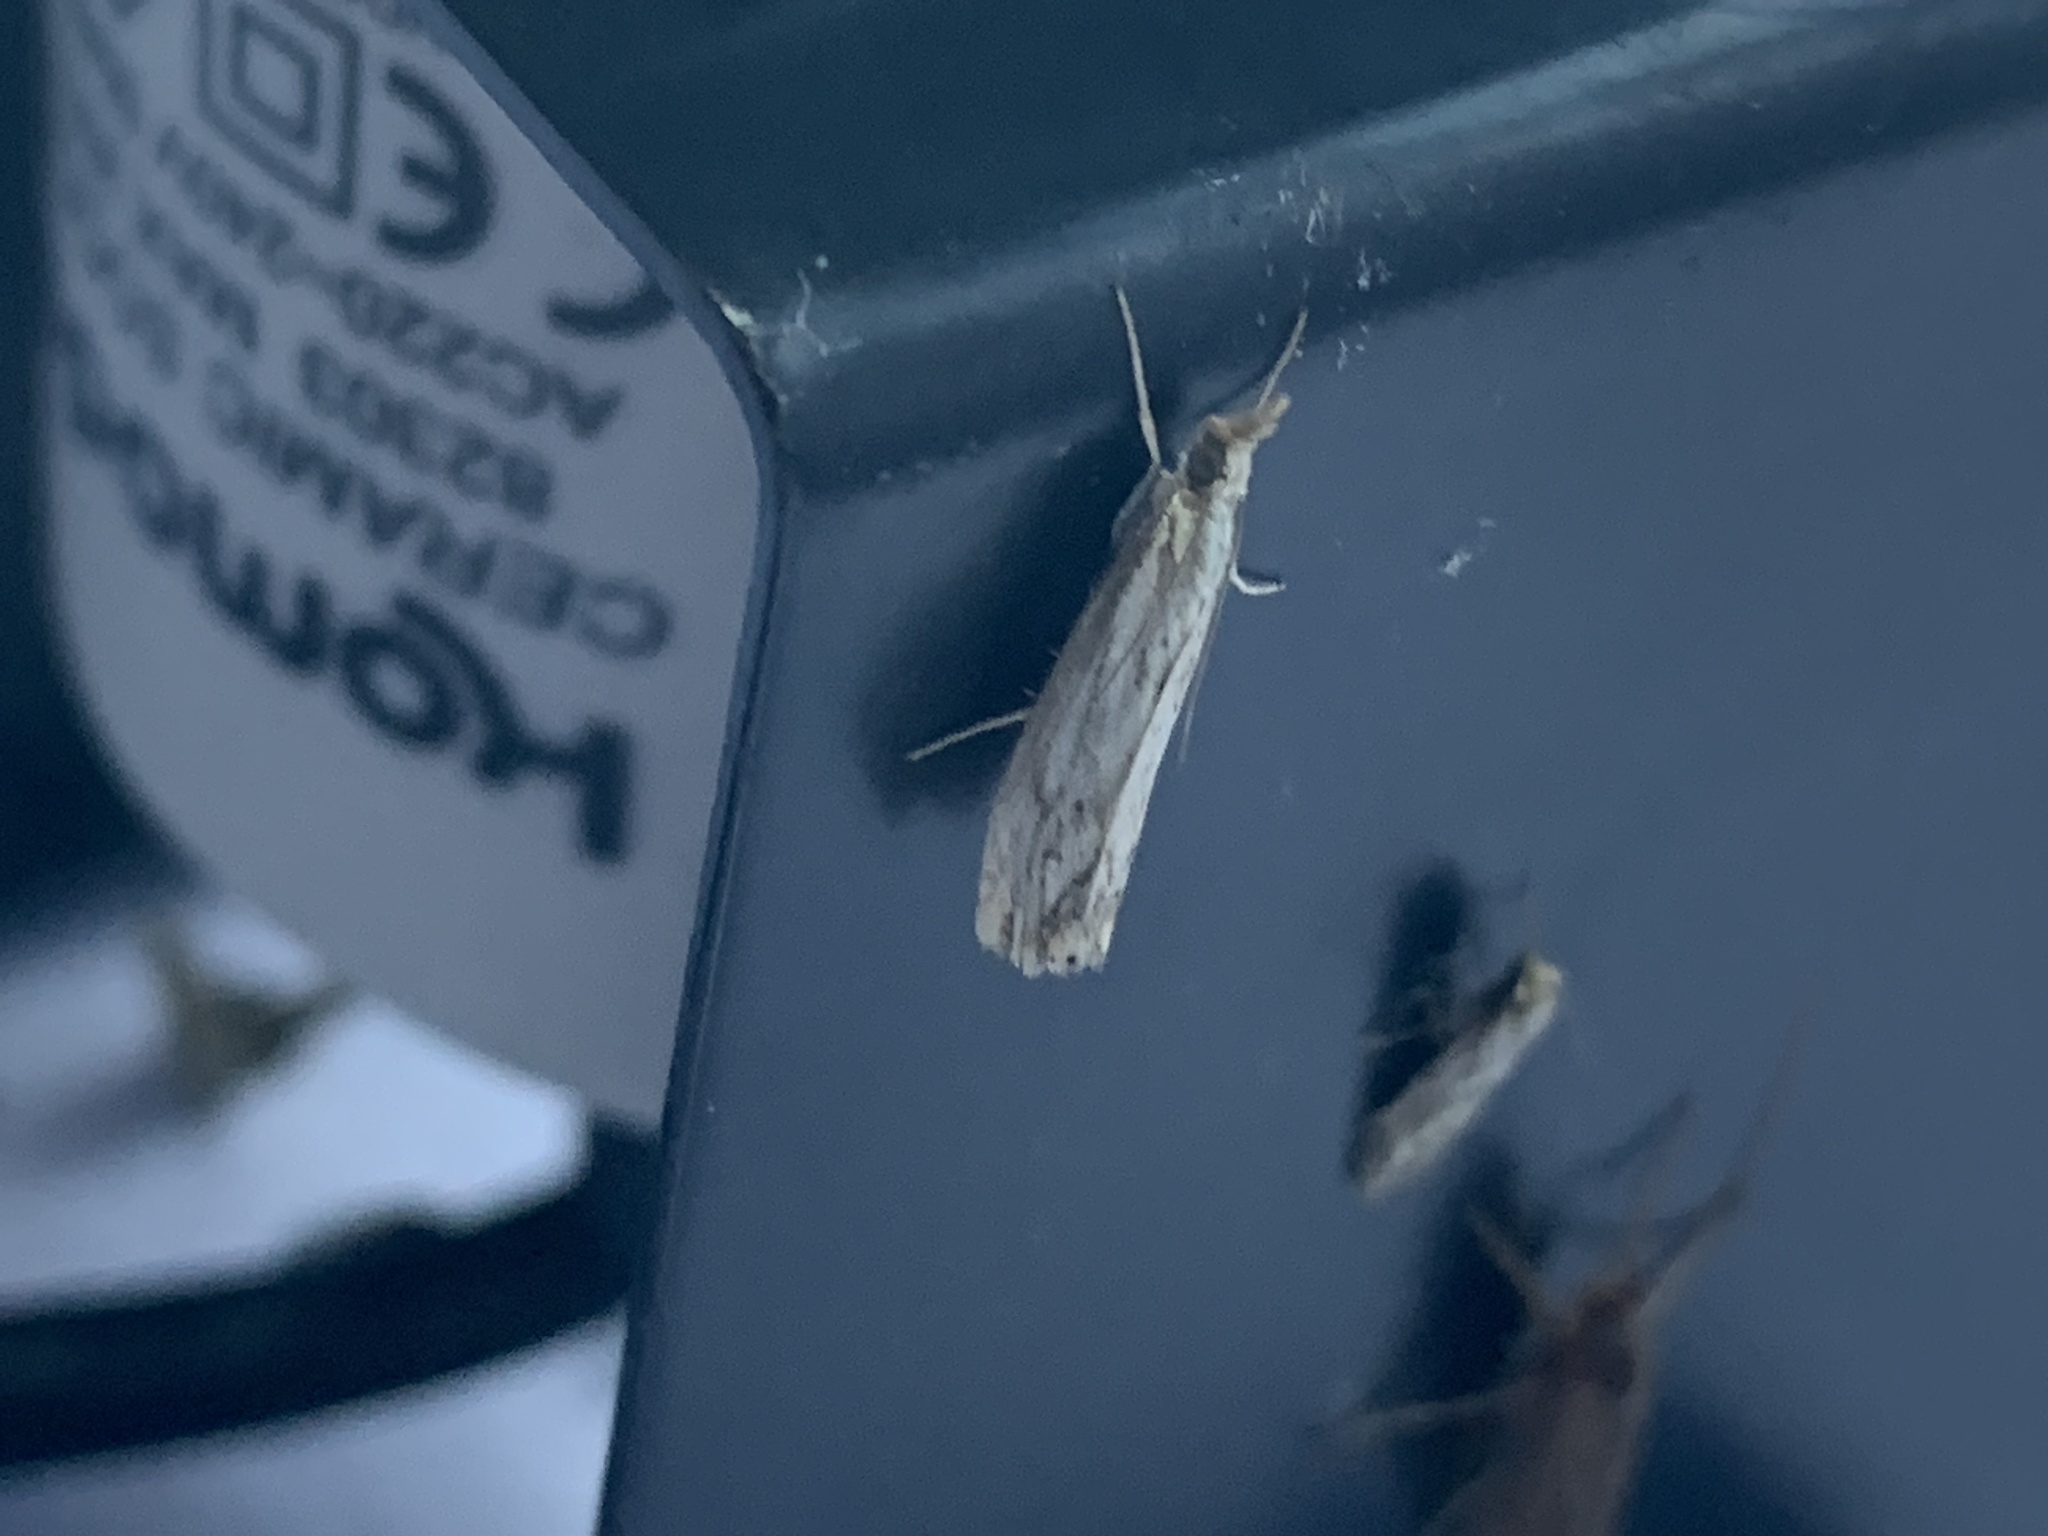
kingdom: Animalia
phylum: Arthropoda
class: Insecta
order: Lepidoptera
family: Crambidae
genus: Catoptria
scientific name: Catoptria falsella
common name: Chequered grass-veneer
